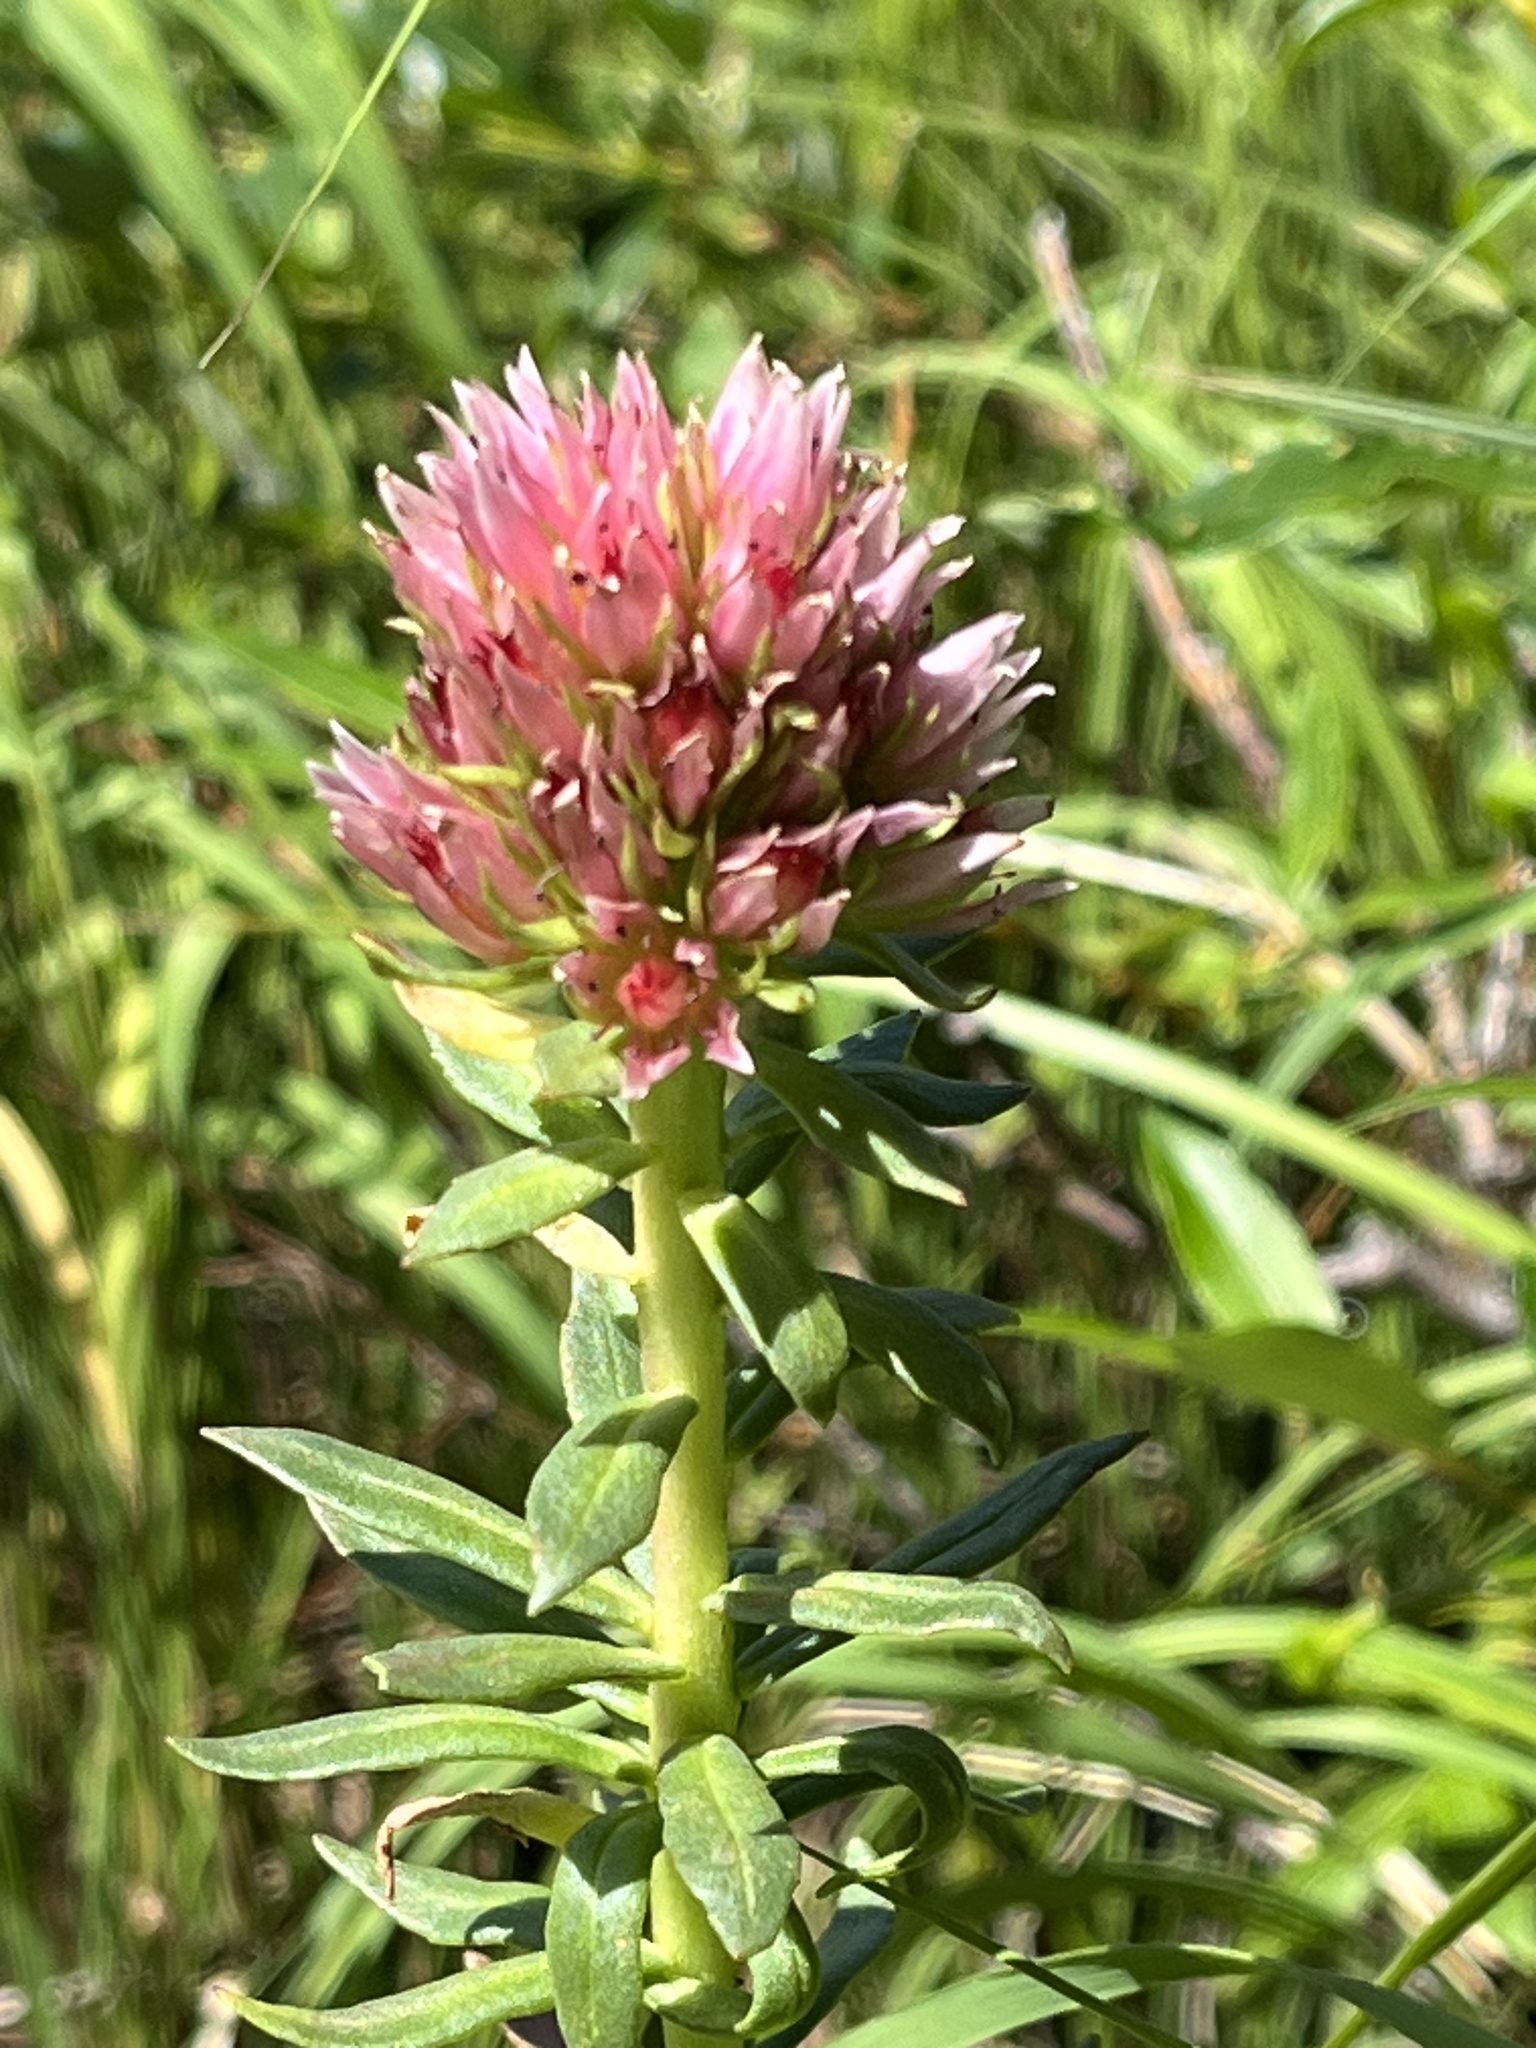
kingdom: Plantae
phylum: Tracheophyta
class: Magnoliopsida
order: Saxifragales
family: Crassulaceae
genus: Rhodiola
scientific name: Rhodiola rhodantha
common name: Red orpine
